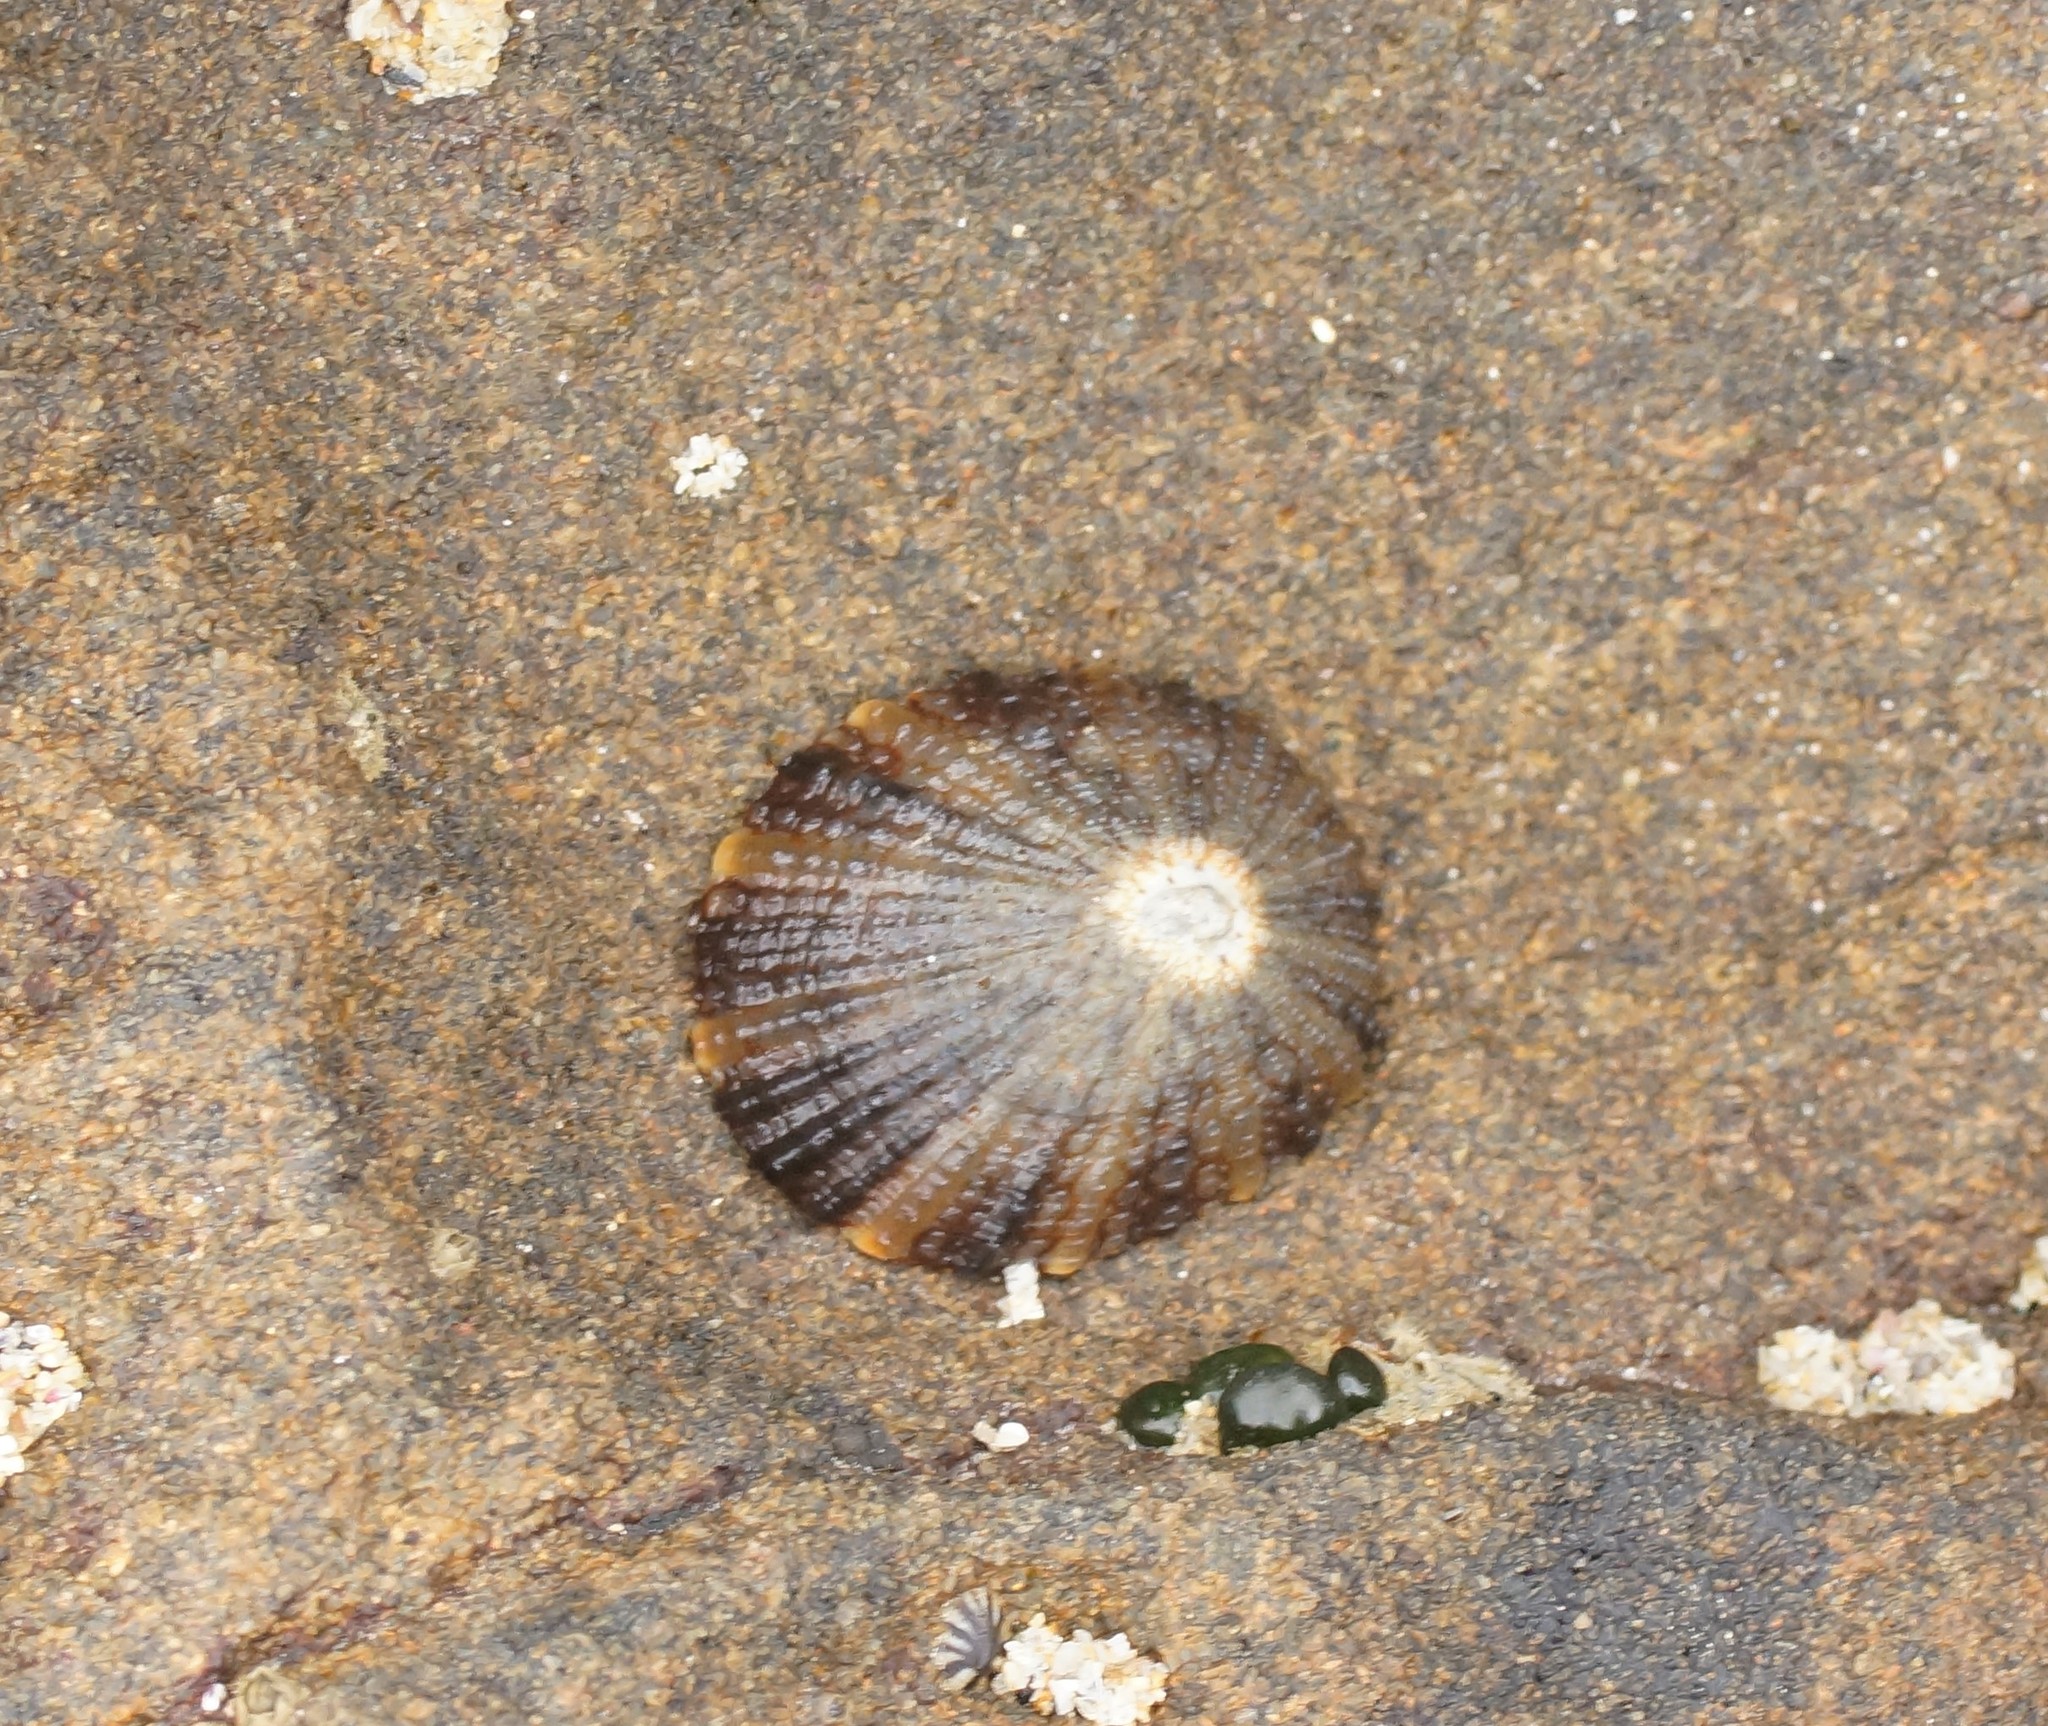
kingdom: Animalia
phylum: Mollusca
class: Gastropoda
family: Nacellidae
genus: Cellana
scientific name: Cellana tramoserica
